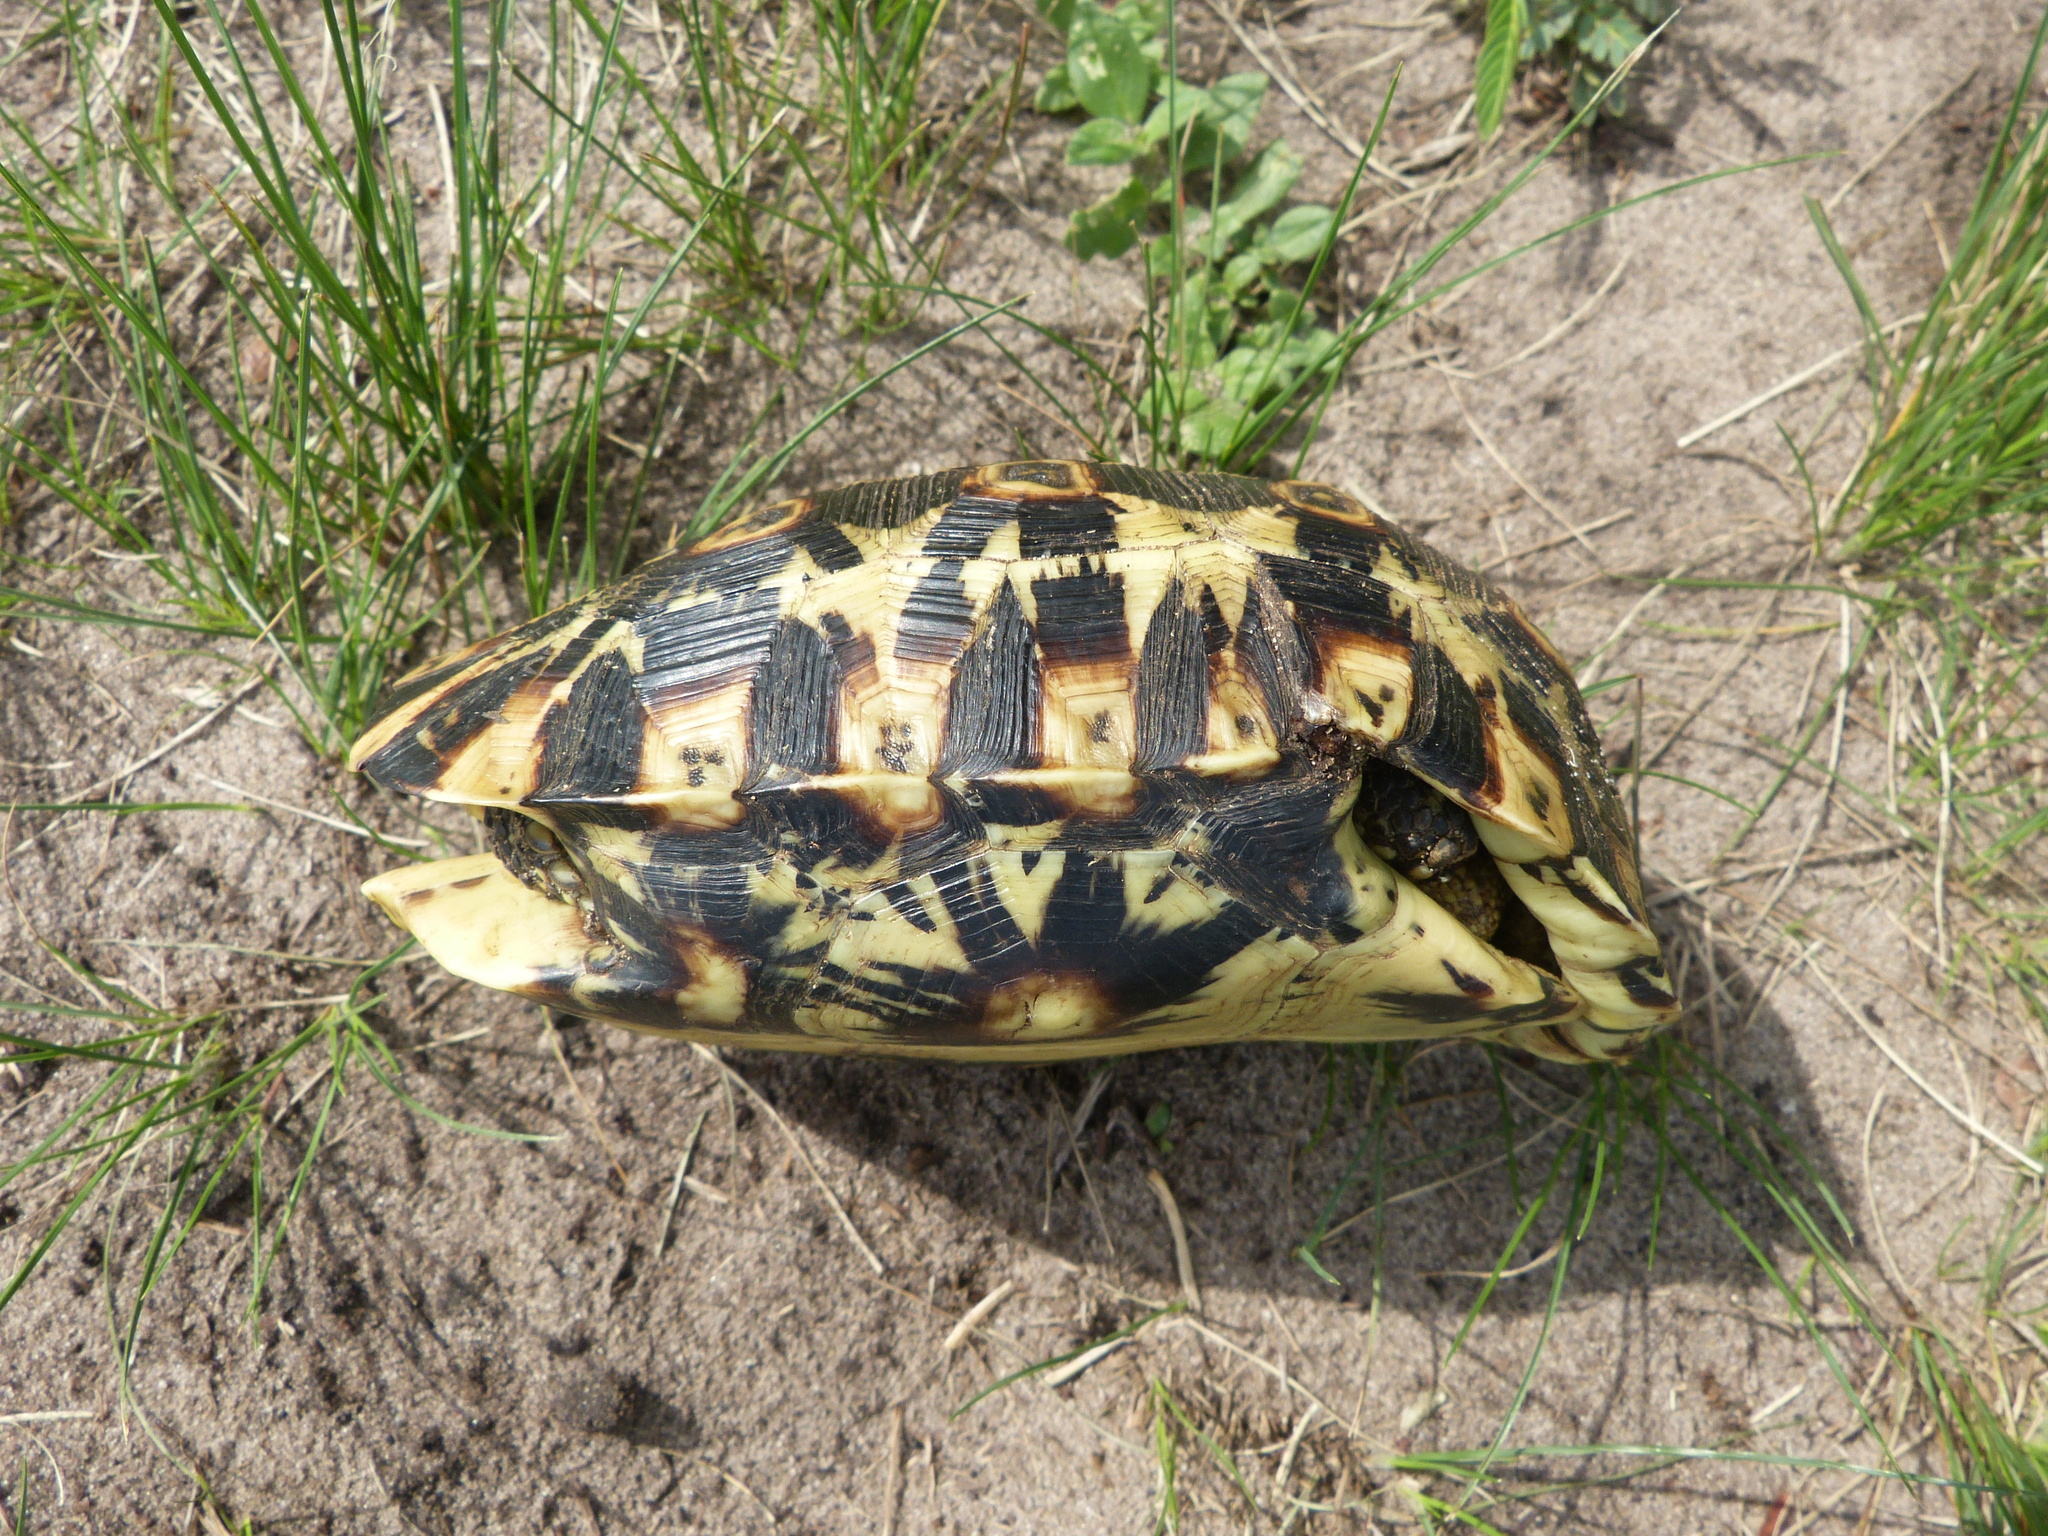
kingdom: Animalia
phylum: Chordata
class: Testudines
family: Testudinidae
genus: Kinixys
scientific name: Kinixys zombensis
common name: Southeastern hinge-back tortoise
